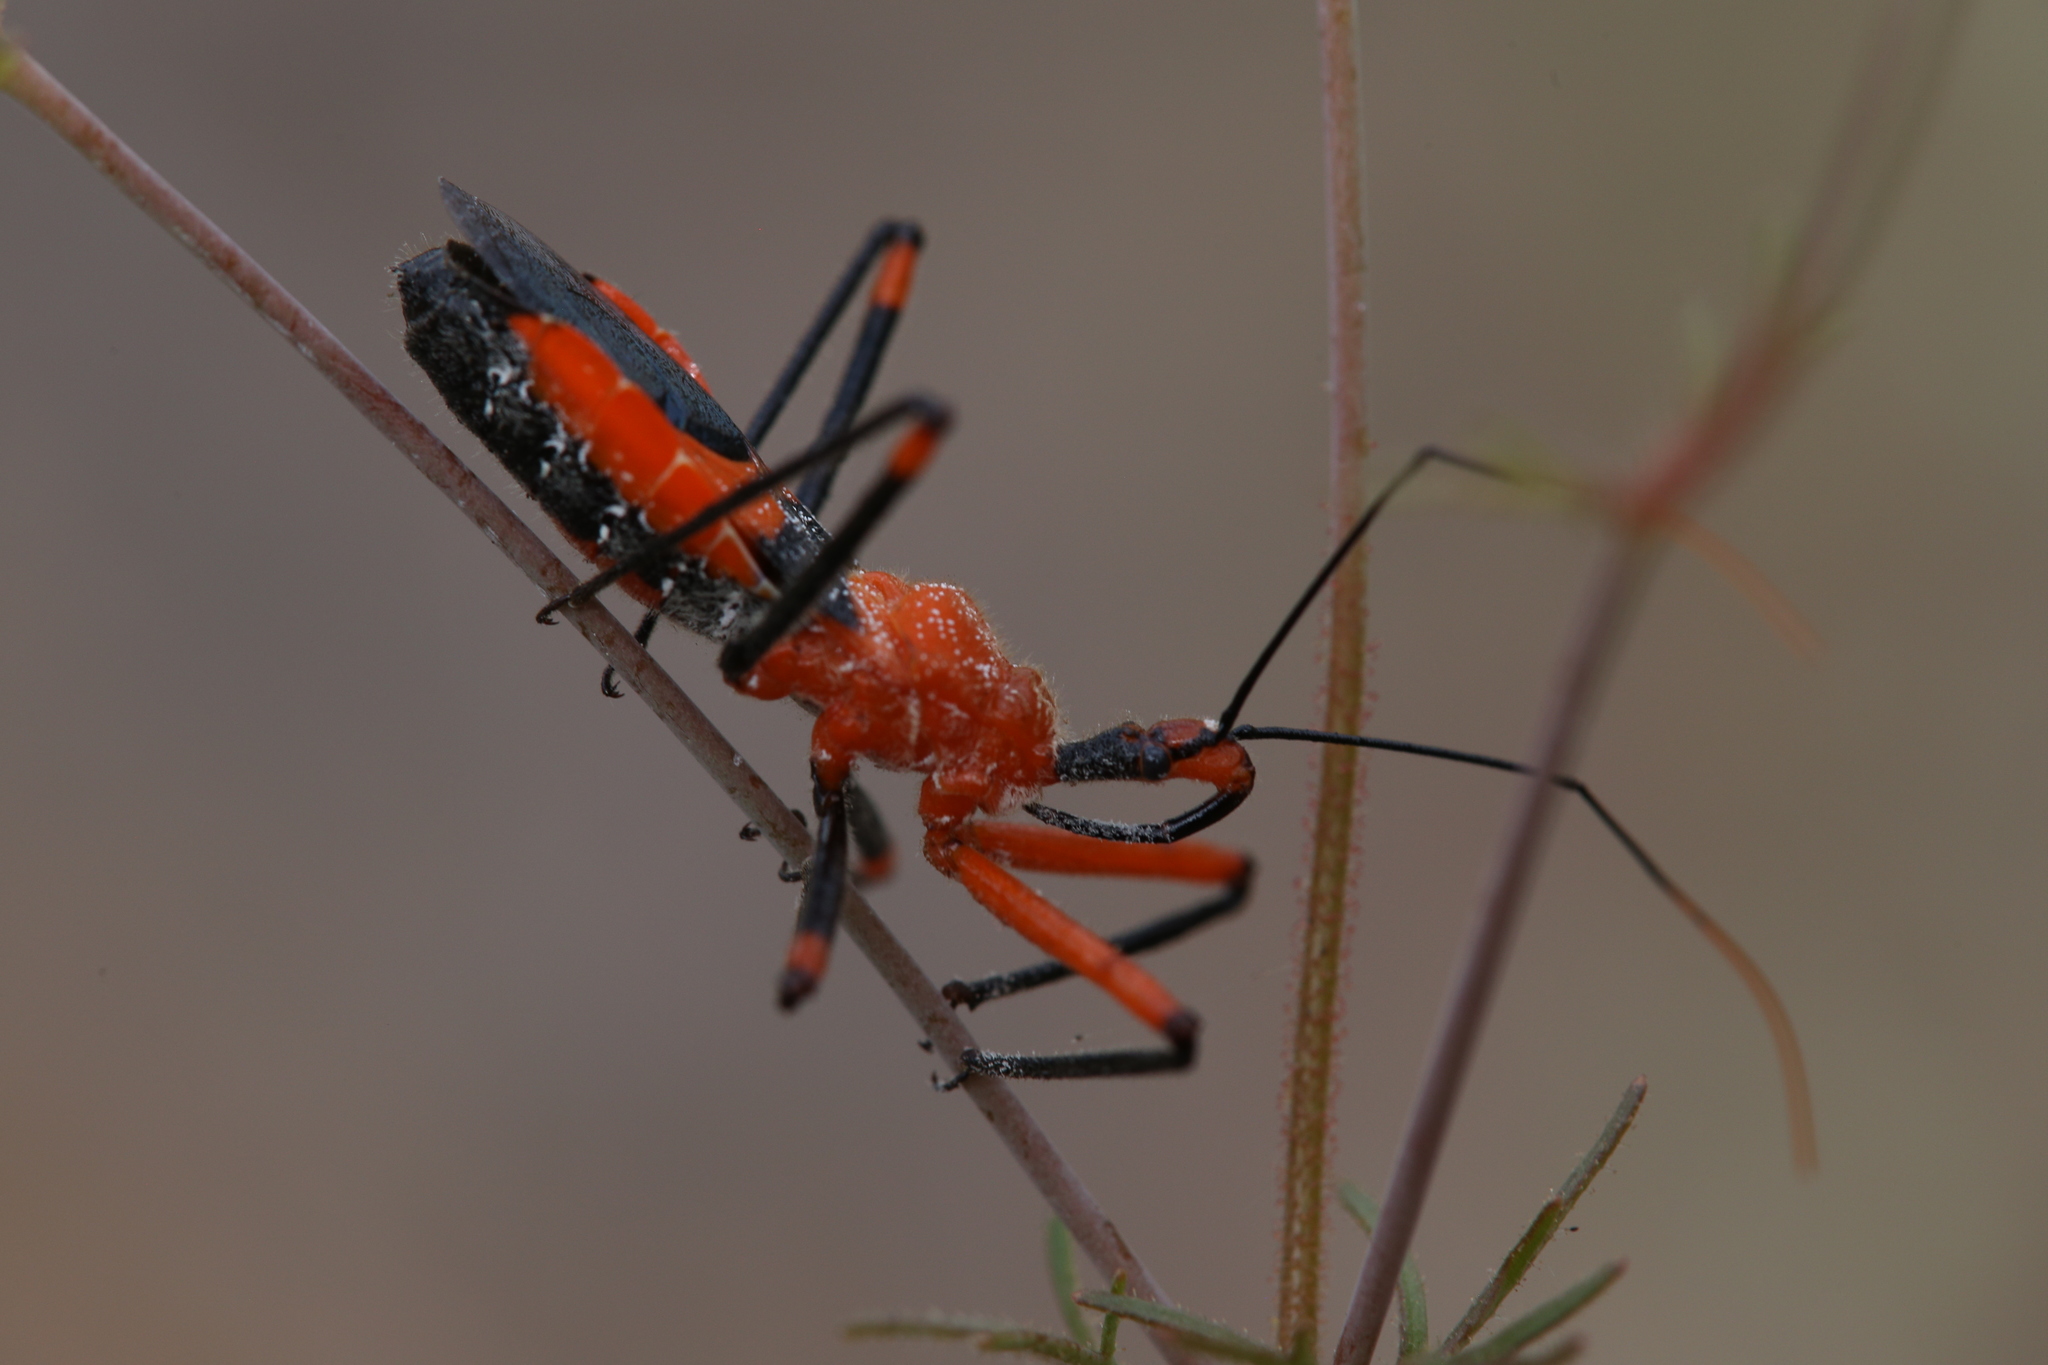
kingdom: Animalia
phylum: Arthropoda
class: Insecta
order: Hemiptera
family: Reduviidae
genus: Poecilobdallus
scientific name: Poecilobdallus formosus
